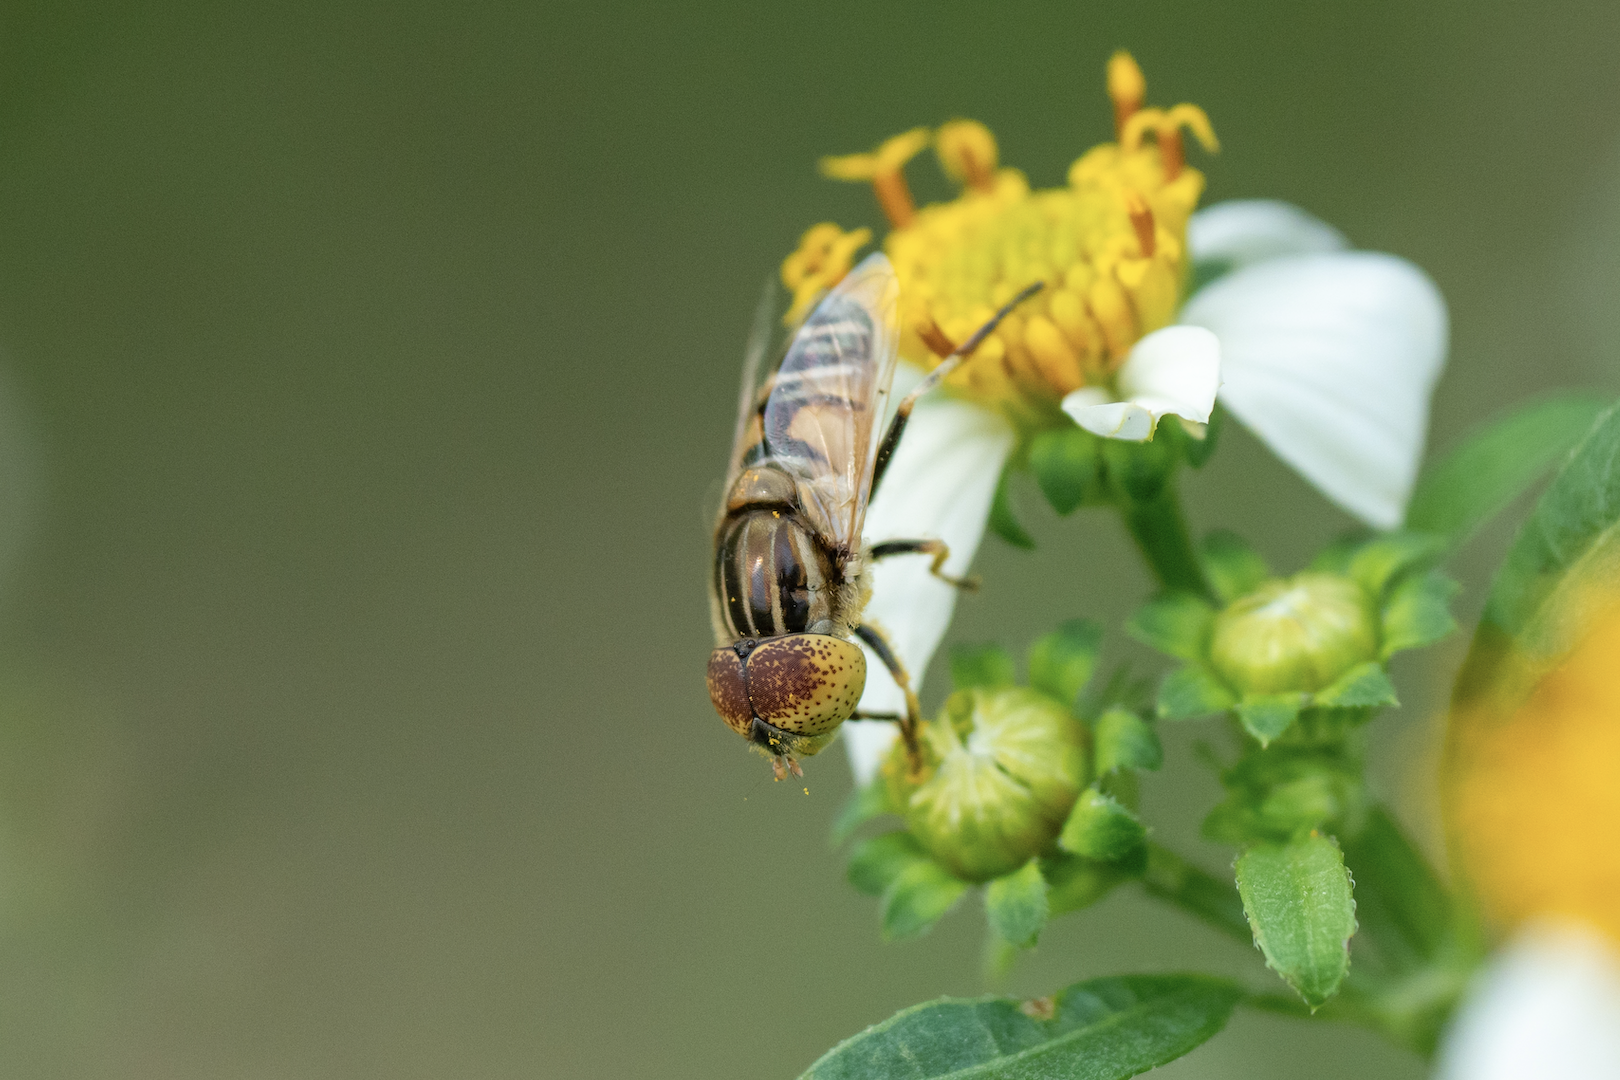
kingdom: Animalia
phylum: Arthropoda
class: Insecta
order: Diptera
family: Syrphidae
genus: Eristalinus
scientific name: Eristalinus megacephalus
